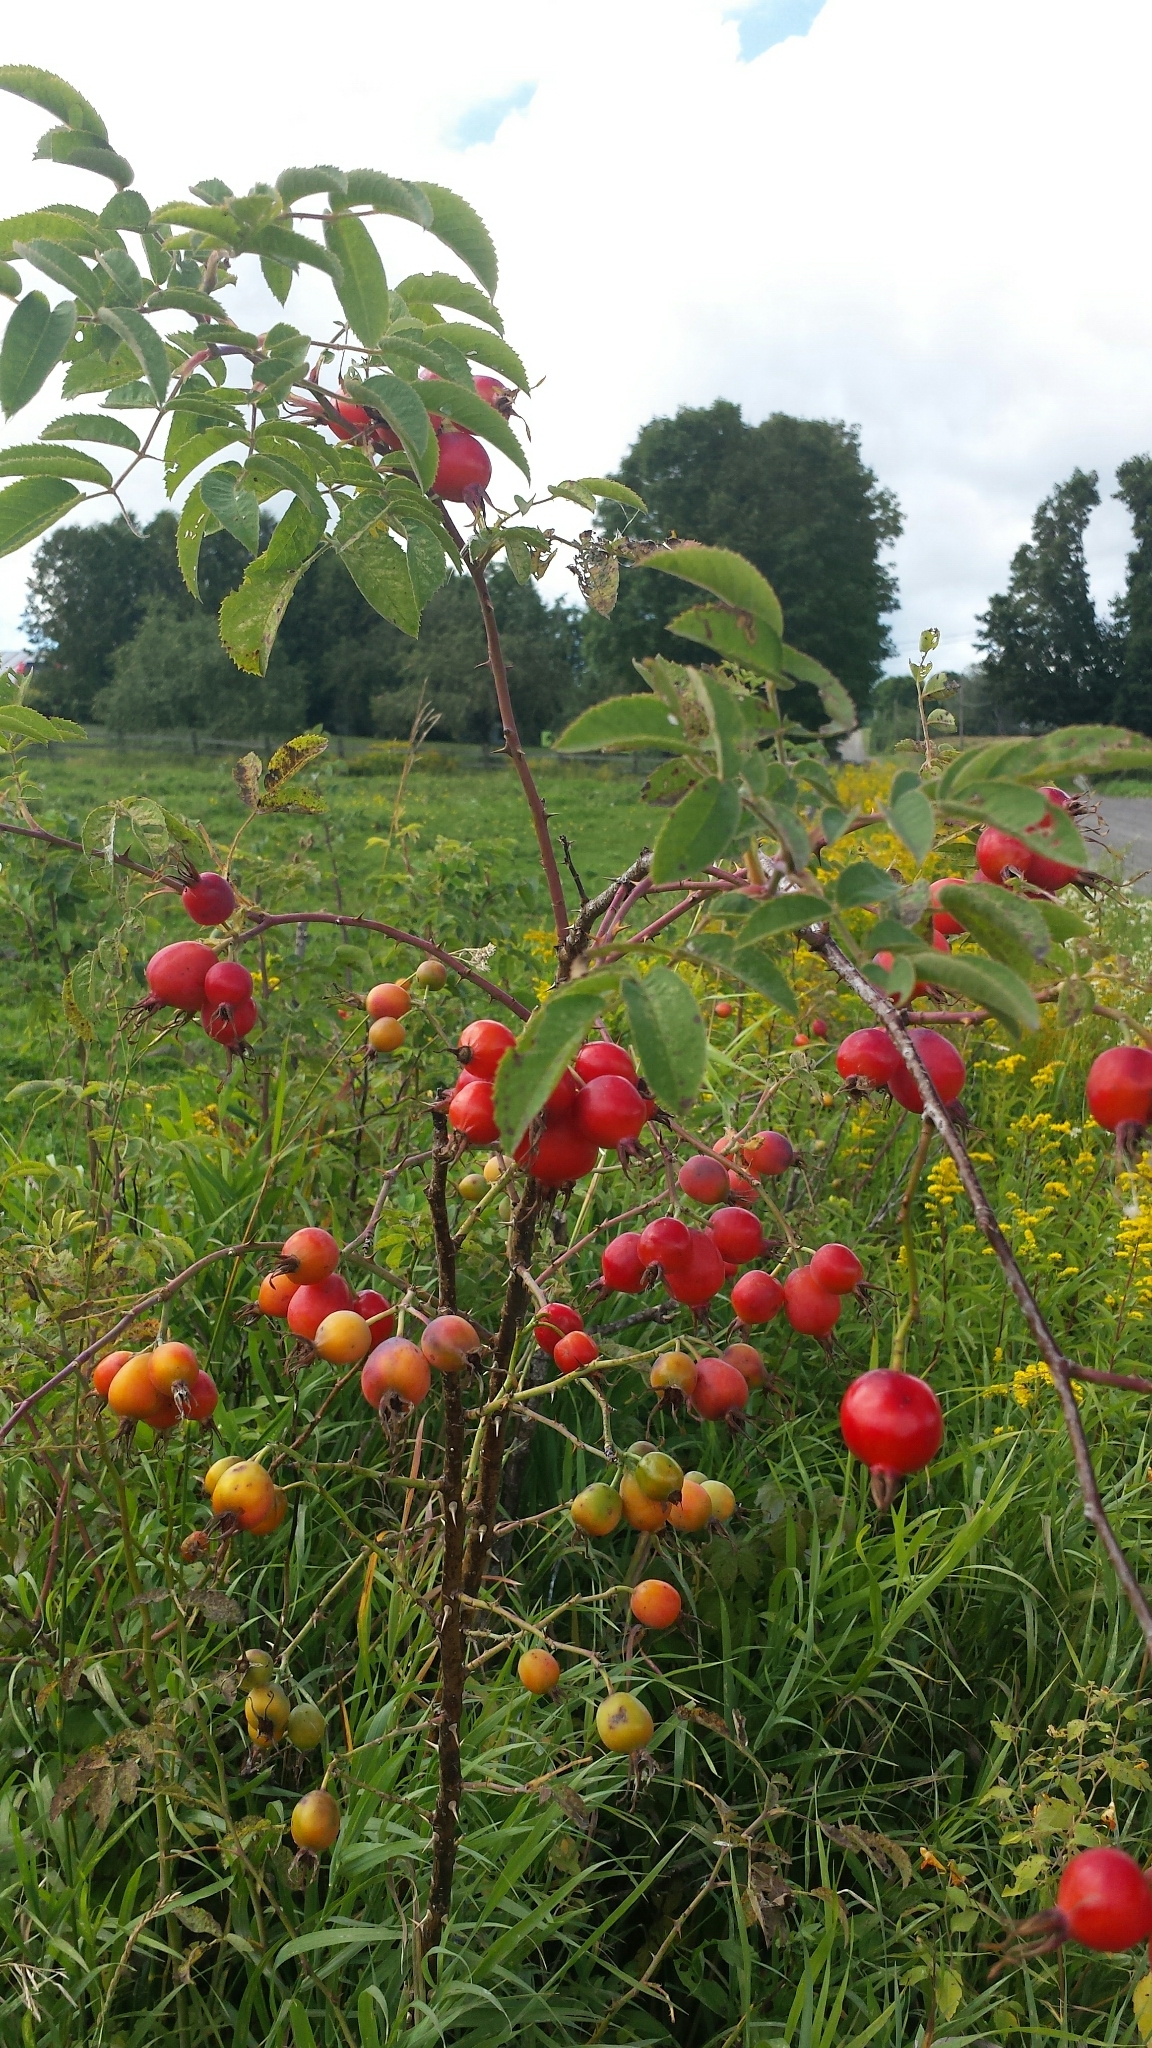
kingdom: Plantae
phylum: Tracheophyta
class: Magnoliopsida
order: Rosales
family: Rosaceae
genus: Rosa
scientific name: Rosa sherardii
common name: Sherard's downy rose
